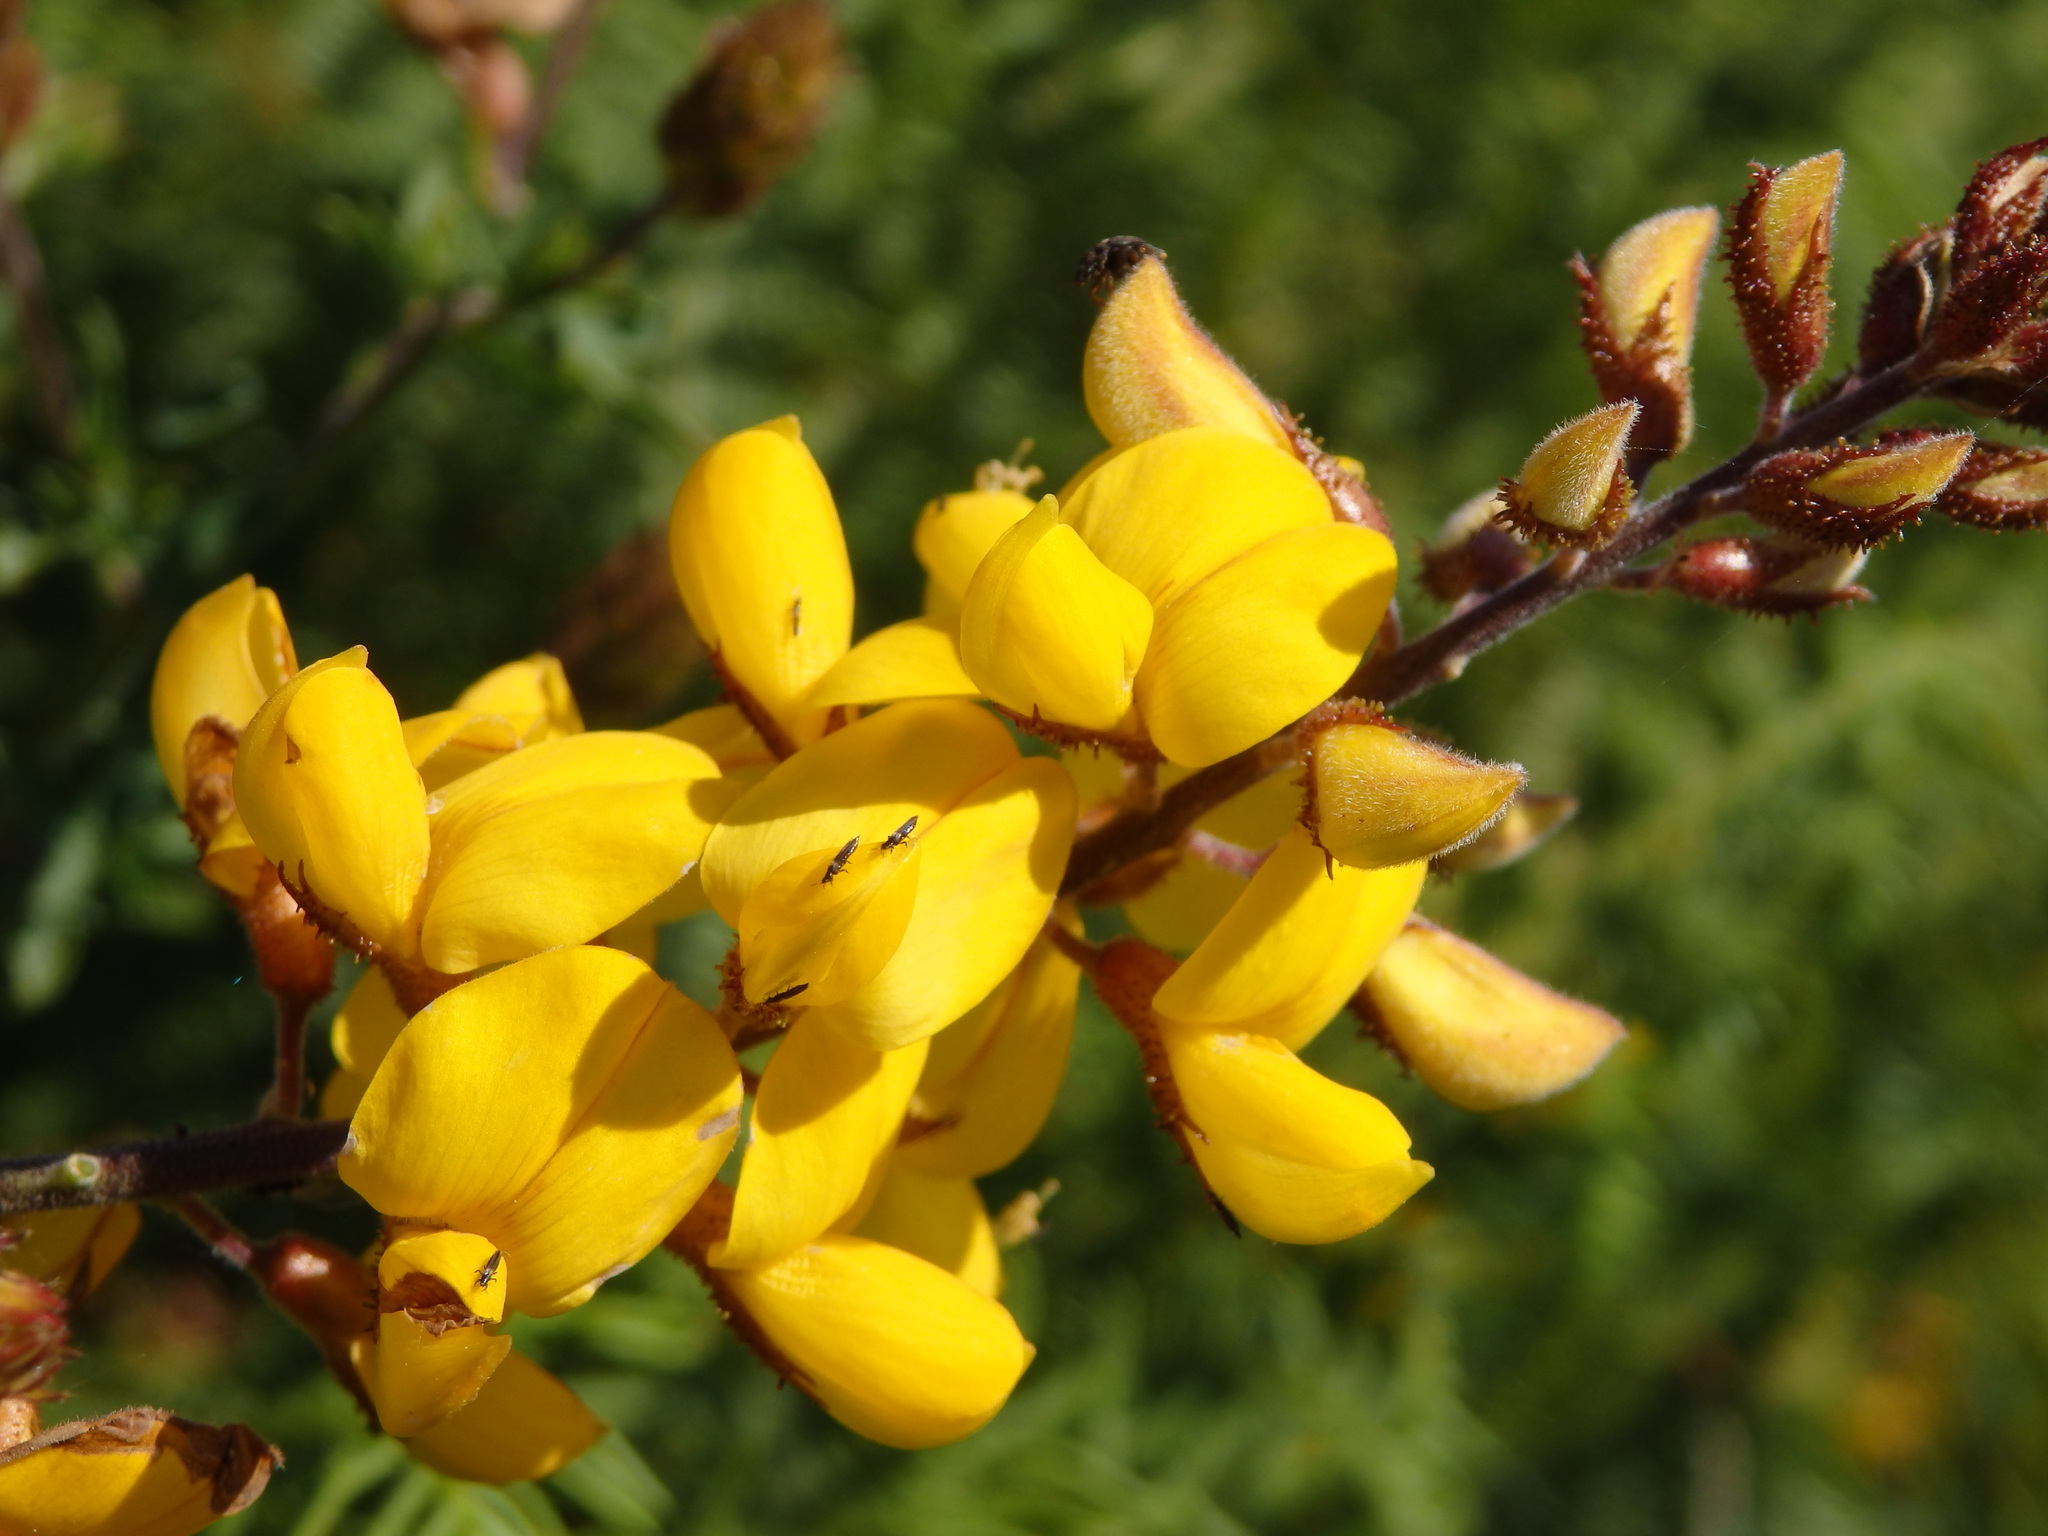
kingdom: Plantae
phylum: Tracheophyta
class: Magnoliopsida
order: Fabales
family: Fabaceae
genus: Adenocarpus
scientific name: Adenocarpus complicatus
